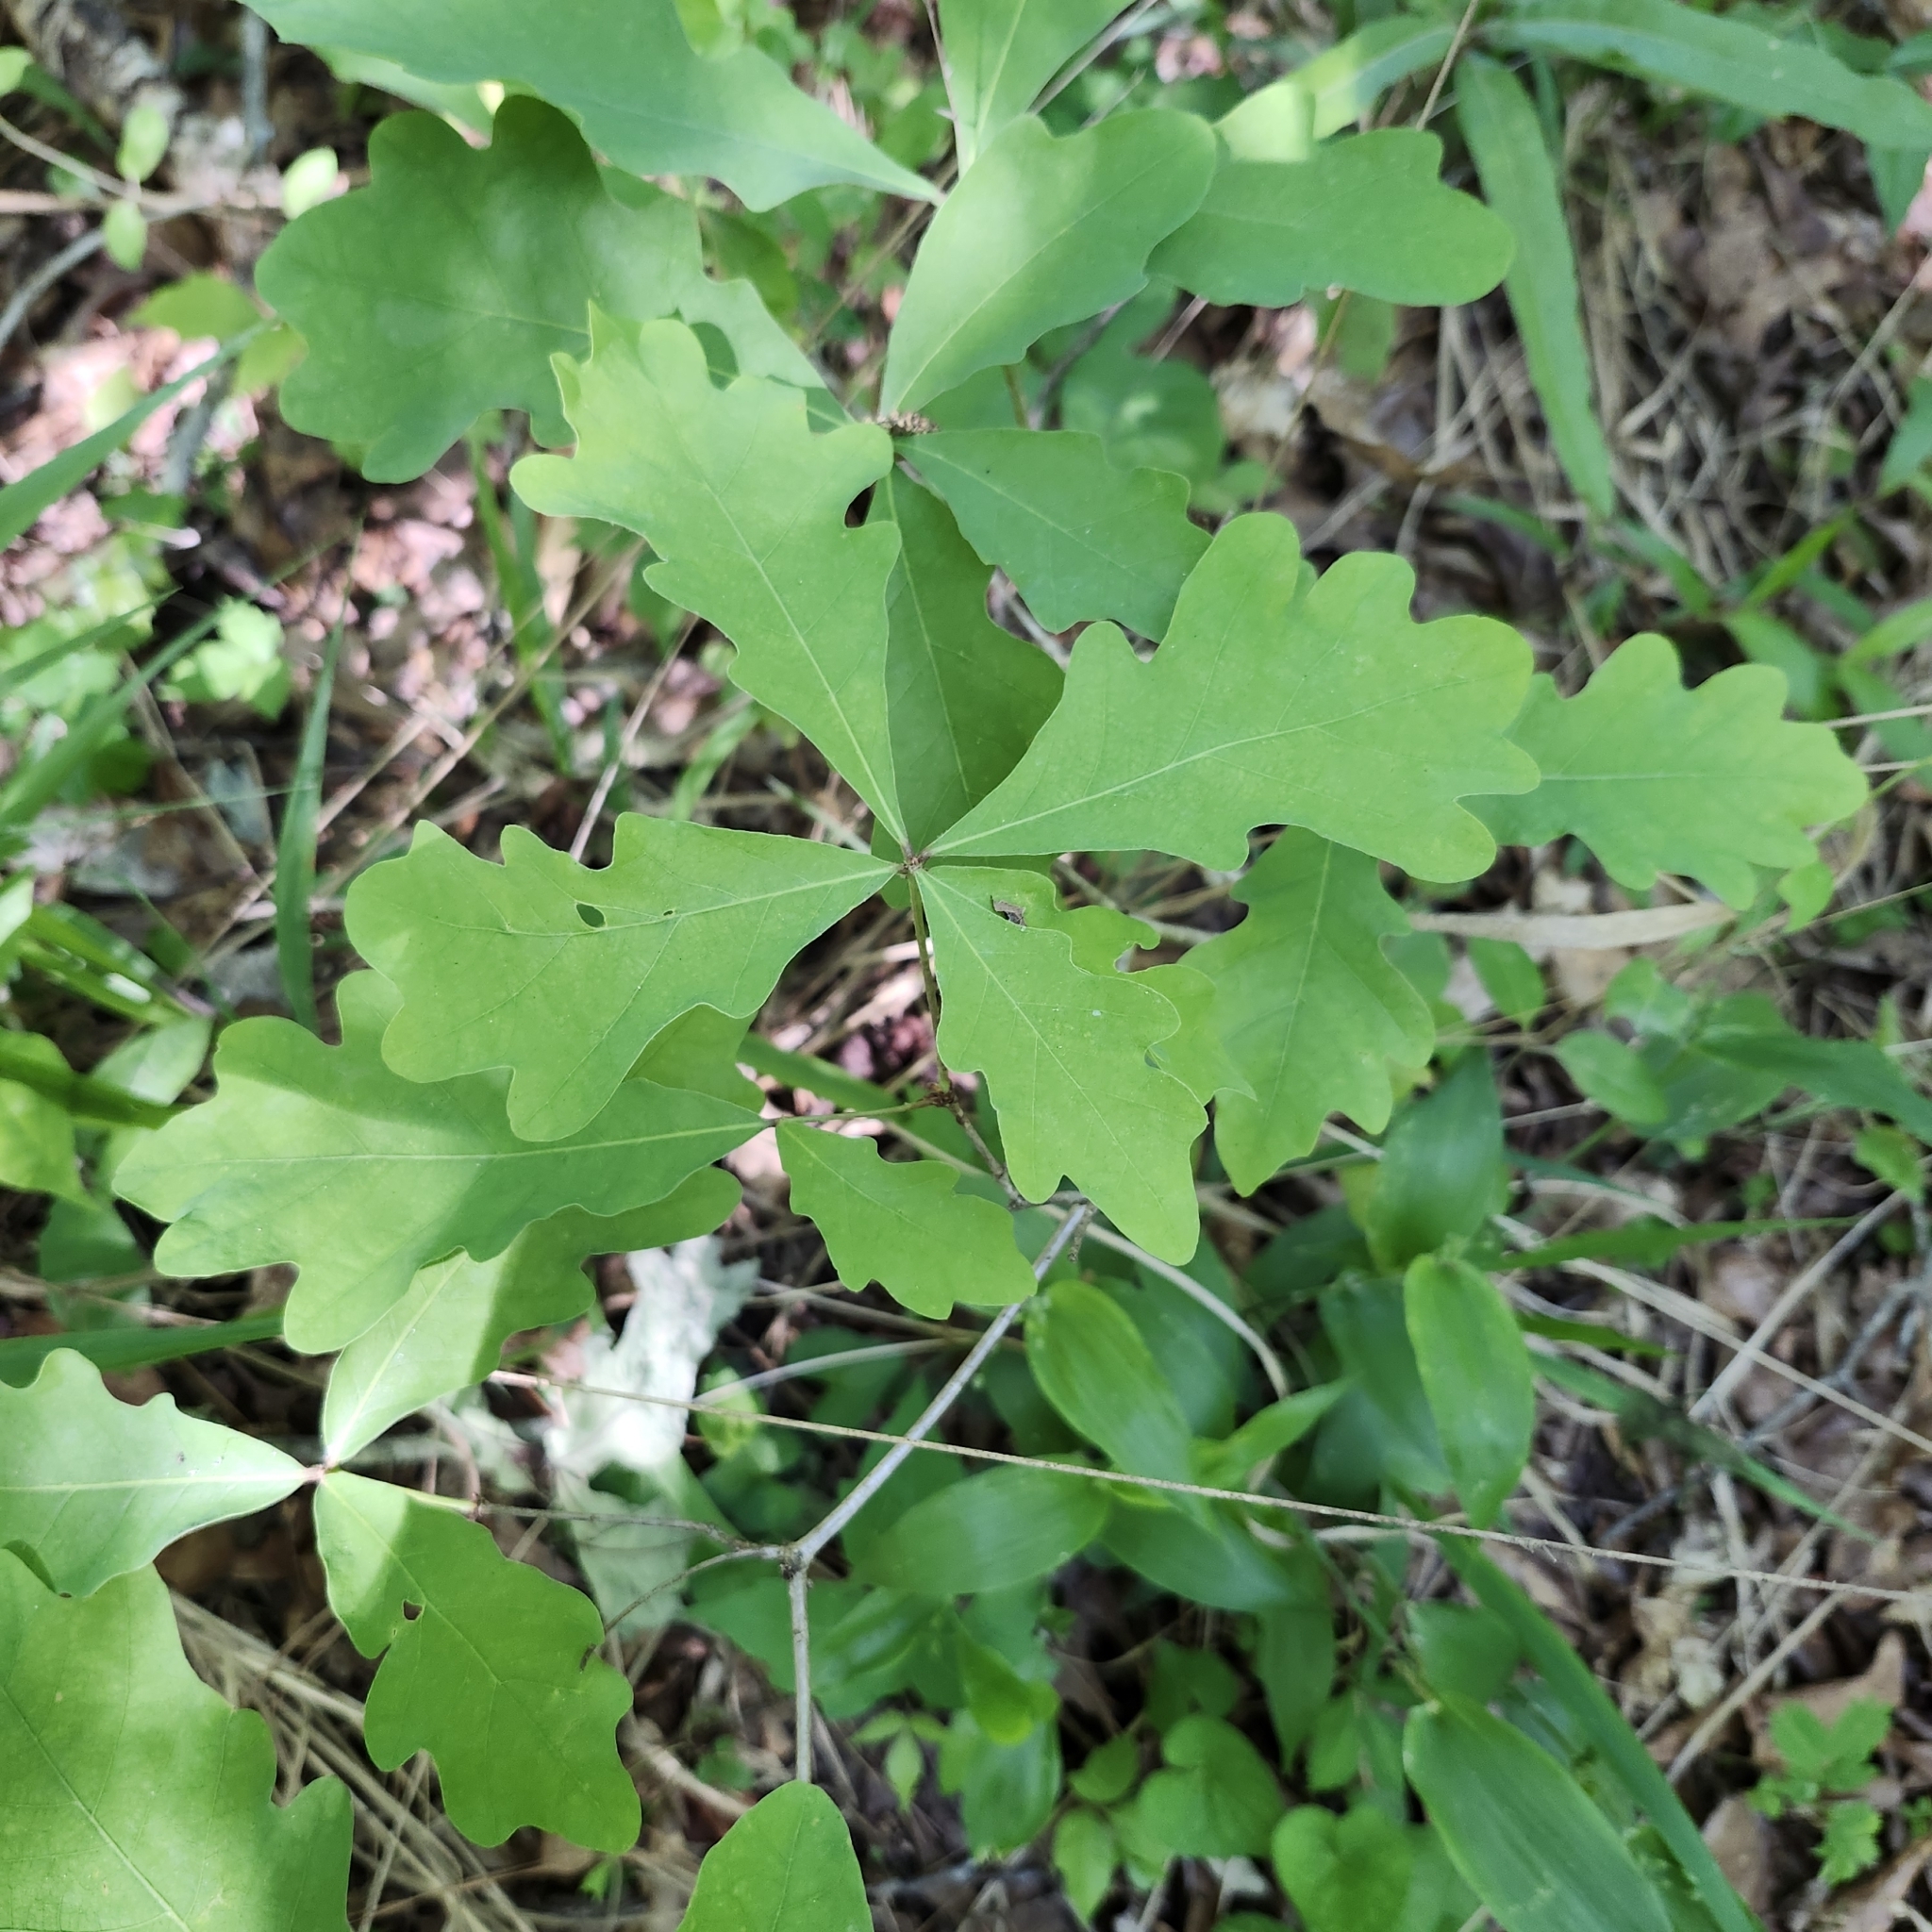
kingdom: Plantae
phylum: Tracheophyta
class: Magnoliopsida
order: Fagales
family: Fagaceae
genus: Quercus
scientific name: Quercus alba
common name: White oak
